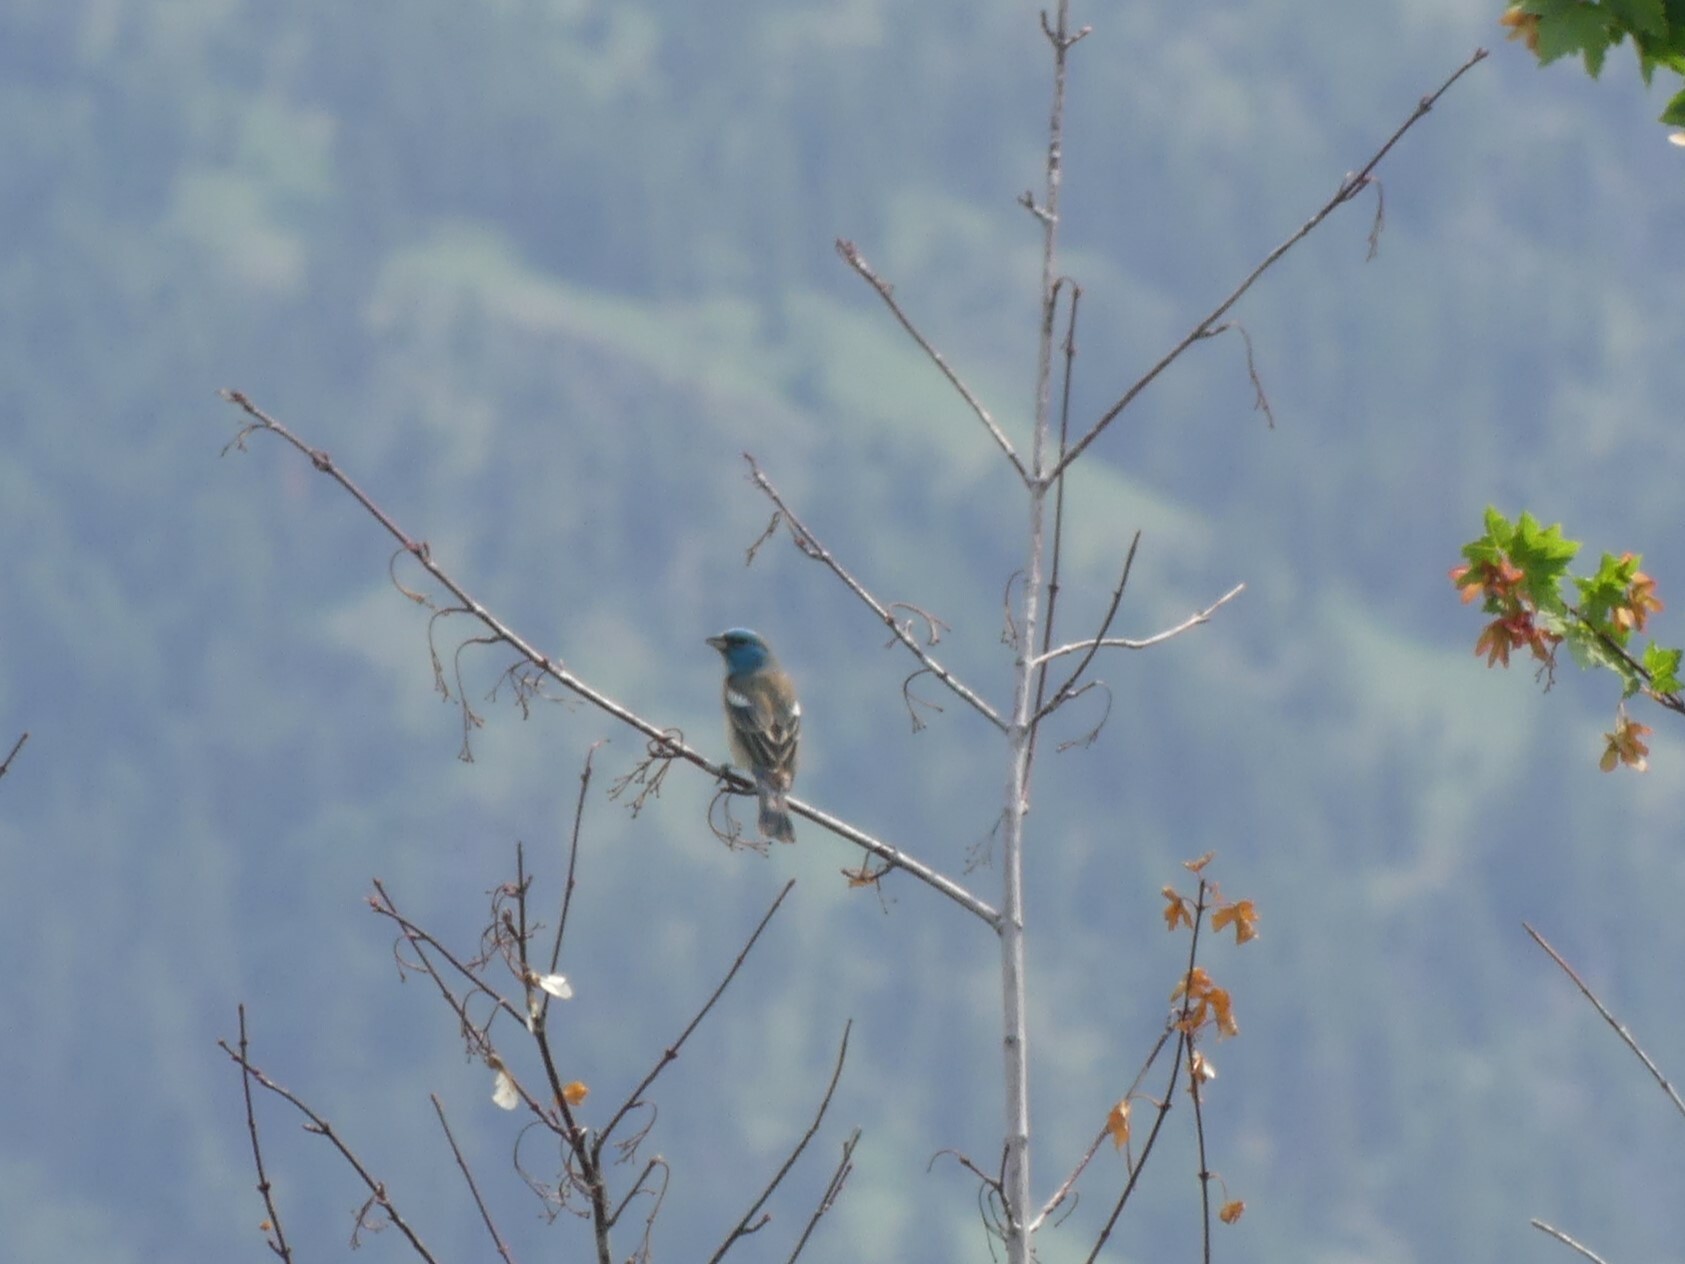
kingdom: Animalia
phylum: Chordata
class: Aves
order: Passeriformes
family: Cardinalidae
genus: Passerina
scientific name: Passerina amoena
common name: Lazuli bunting
